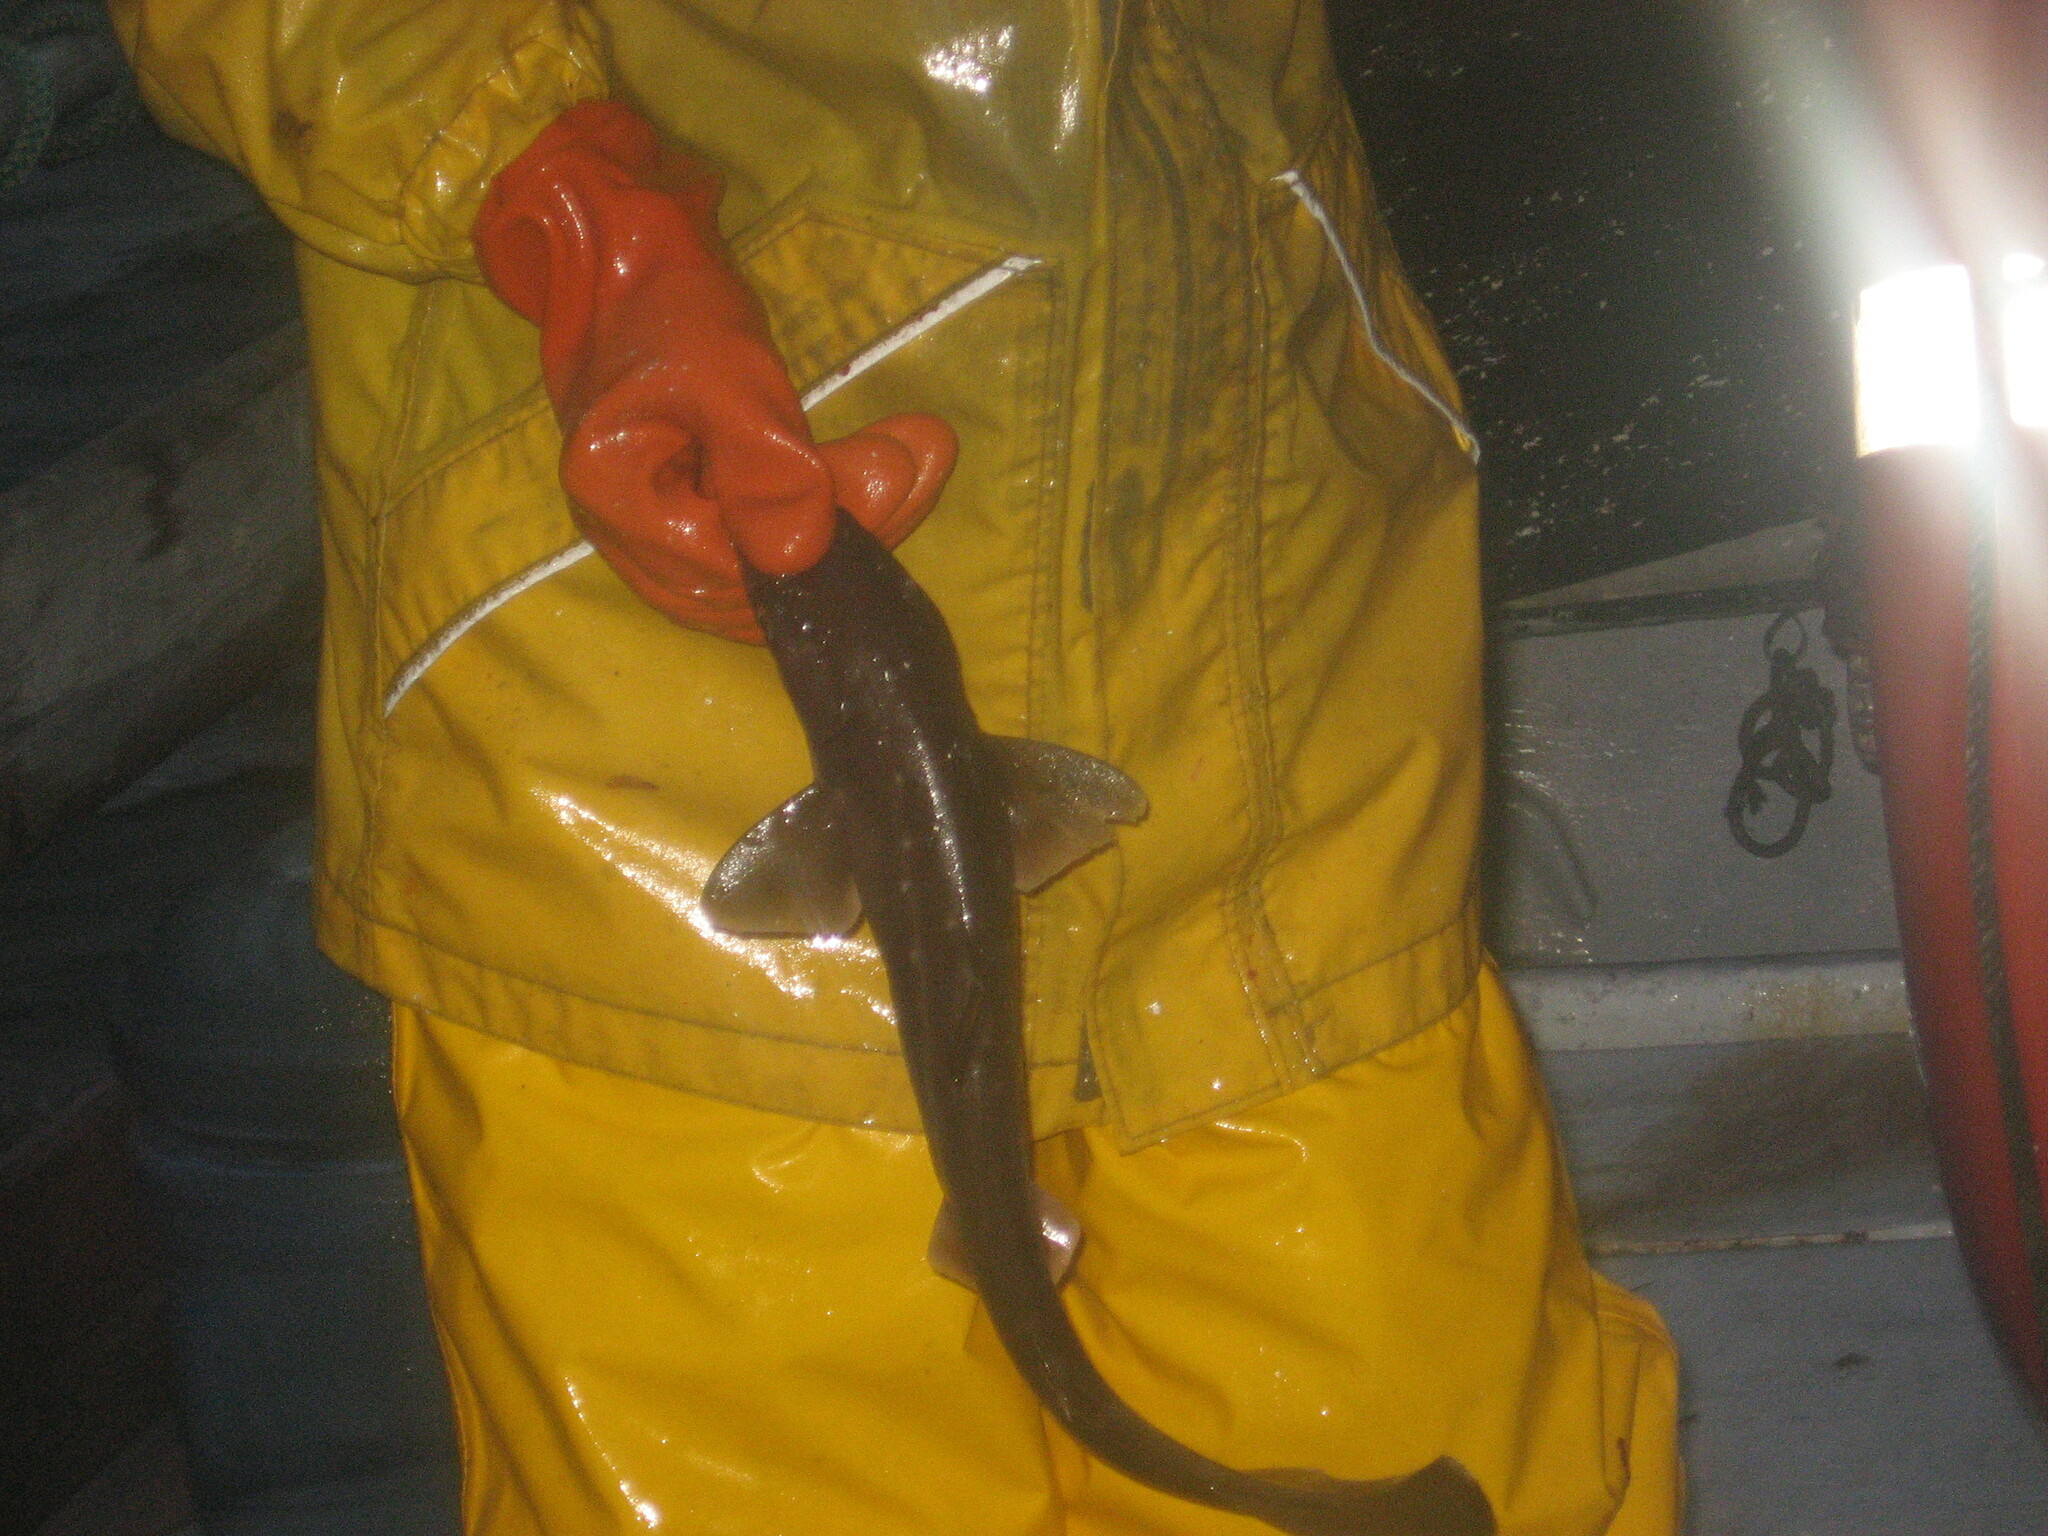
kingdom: Animalia
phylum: Chordata
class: Elasmobranchii
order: Squaliformes
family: Squalidae
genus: Squalus
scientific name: Squalus suckleyi
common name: Spiny dogfish
